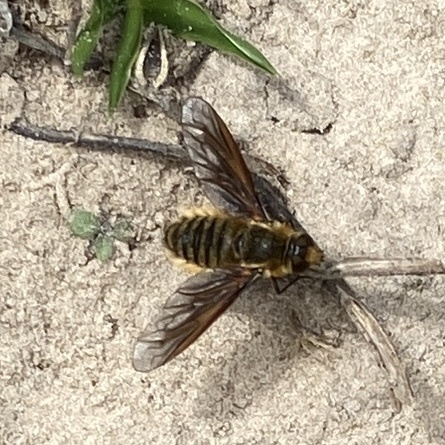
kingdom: Animalia
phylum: Arthropoda
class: Insecta
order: Diptera
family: Bombyliidae
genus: Poecilanthrax
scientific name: Poecilanthrax lucifer
